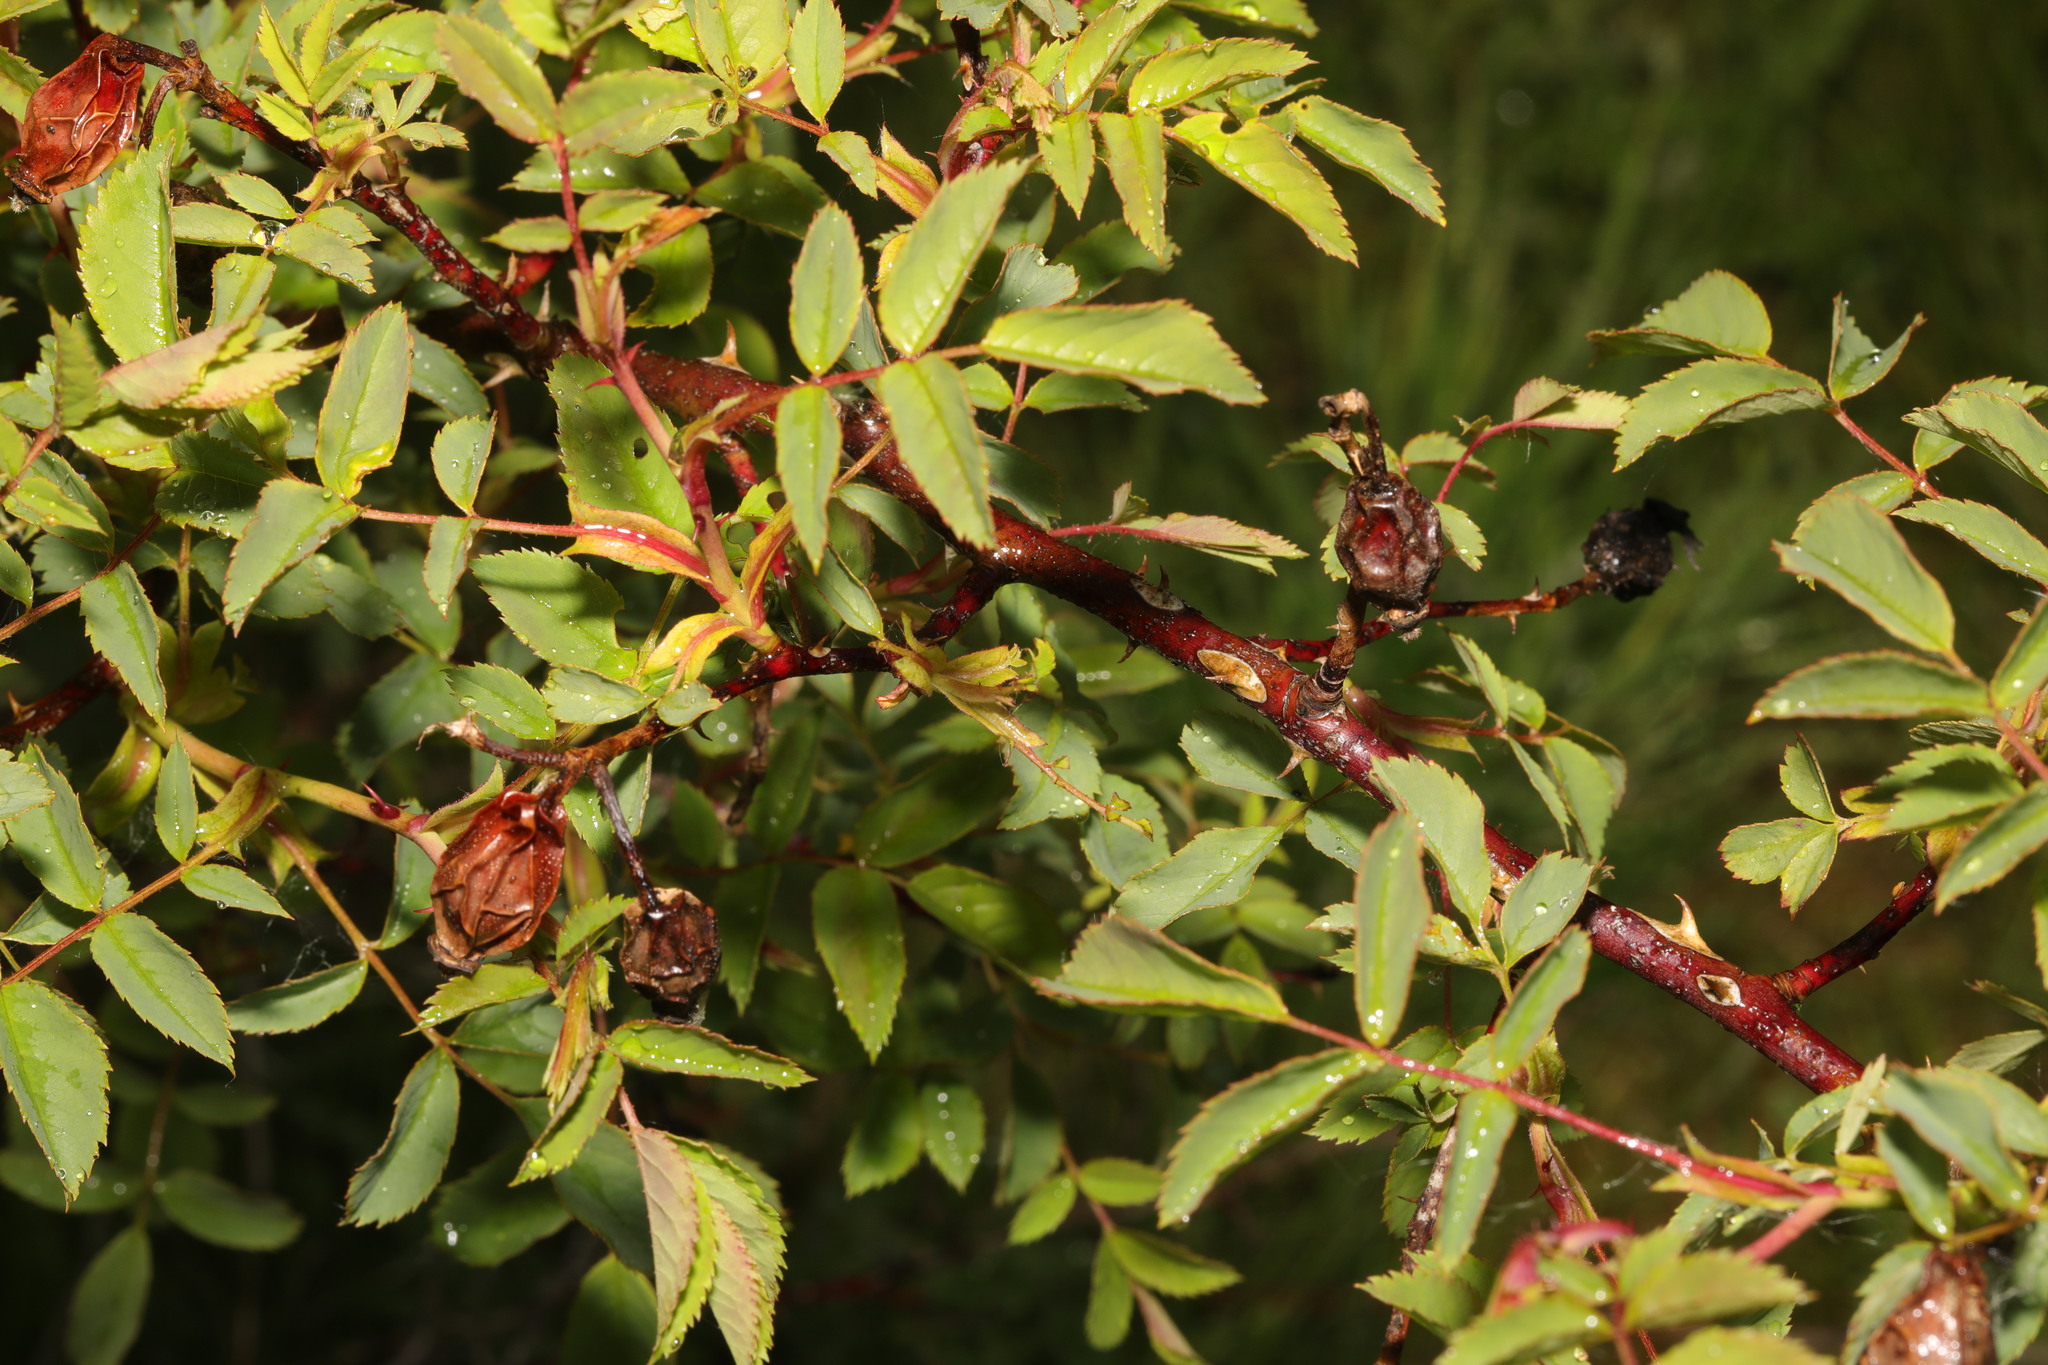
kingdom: Plantae
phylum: Tracheophyta
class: Magnoliopsida
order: Rosales
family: Rosaceae
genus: Rosa
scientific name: Rosa
